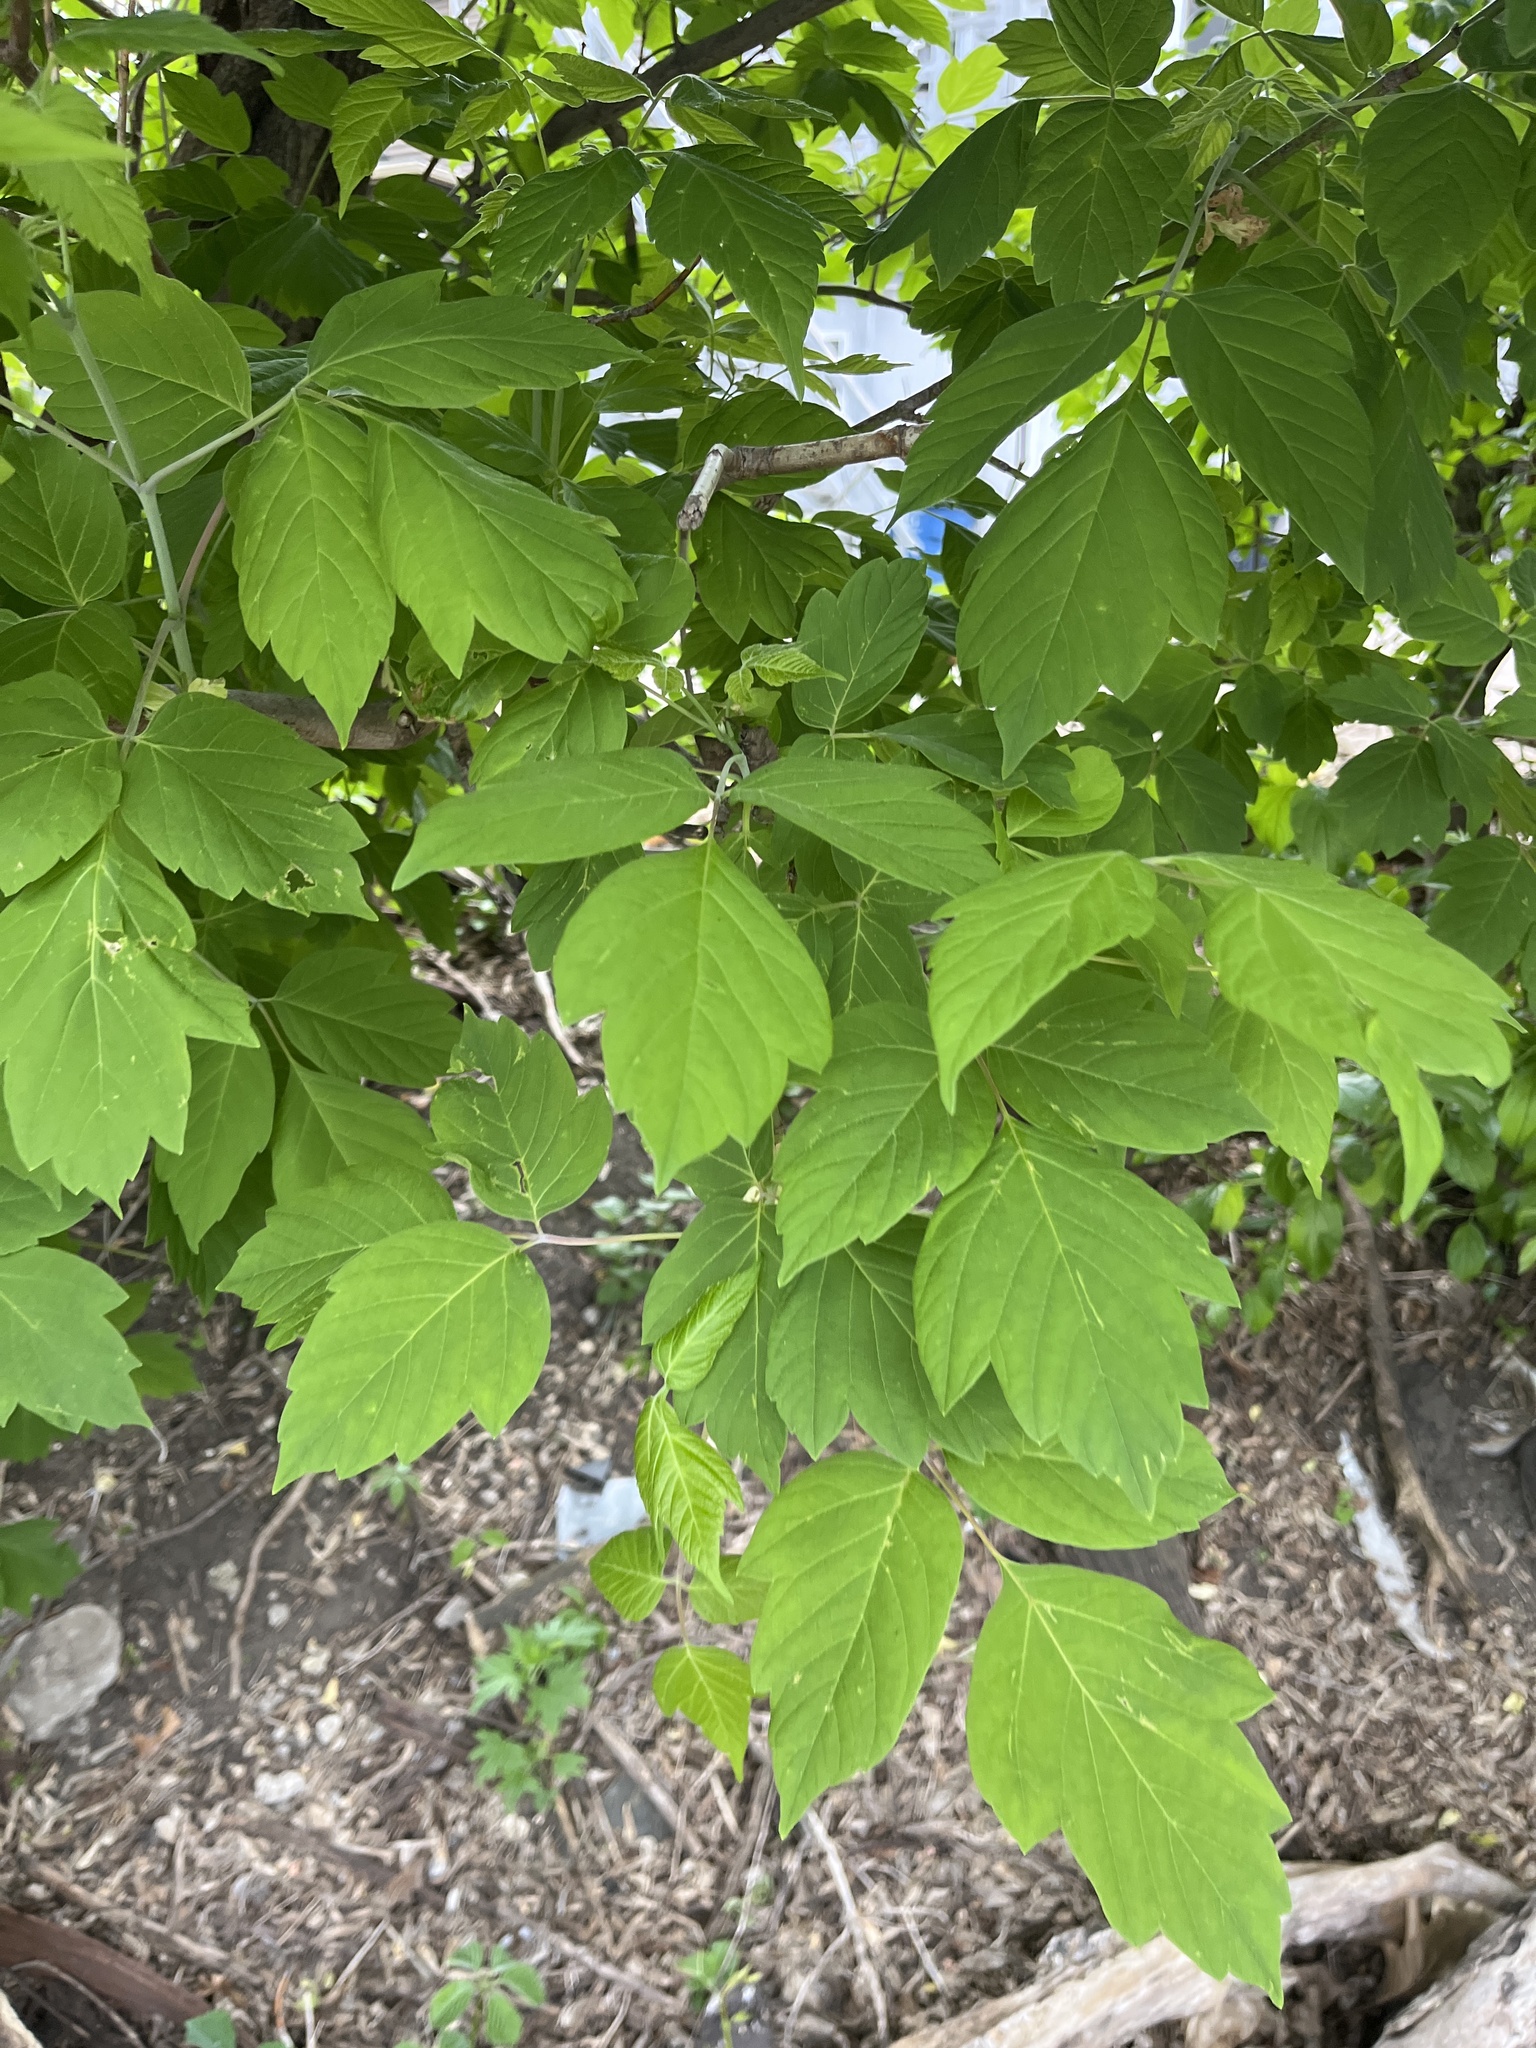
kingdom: Plantae
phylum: Tracheophyta
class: Magnoliopsida
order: Sapindales
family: Sapindaceae
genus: Acer
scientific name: Acer negundo
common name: Ashleaf maple
